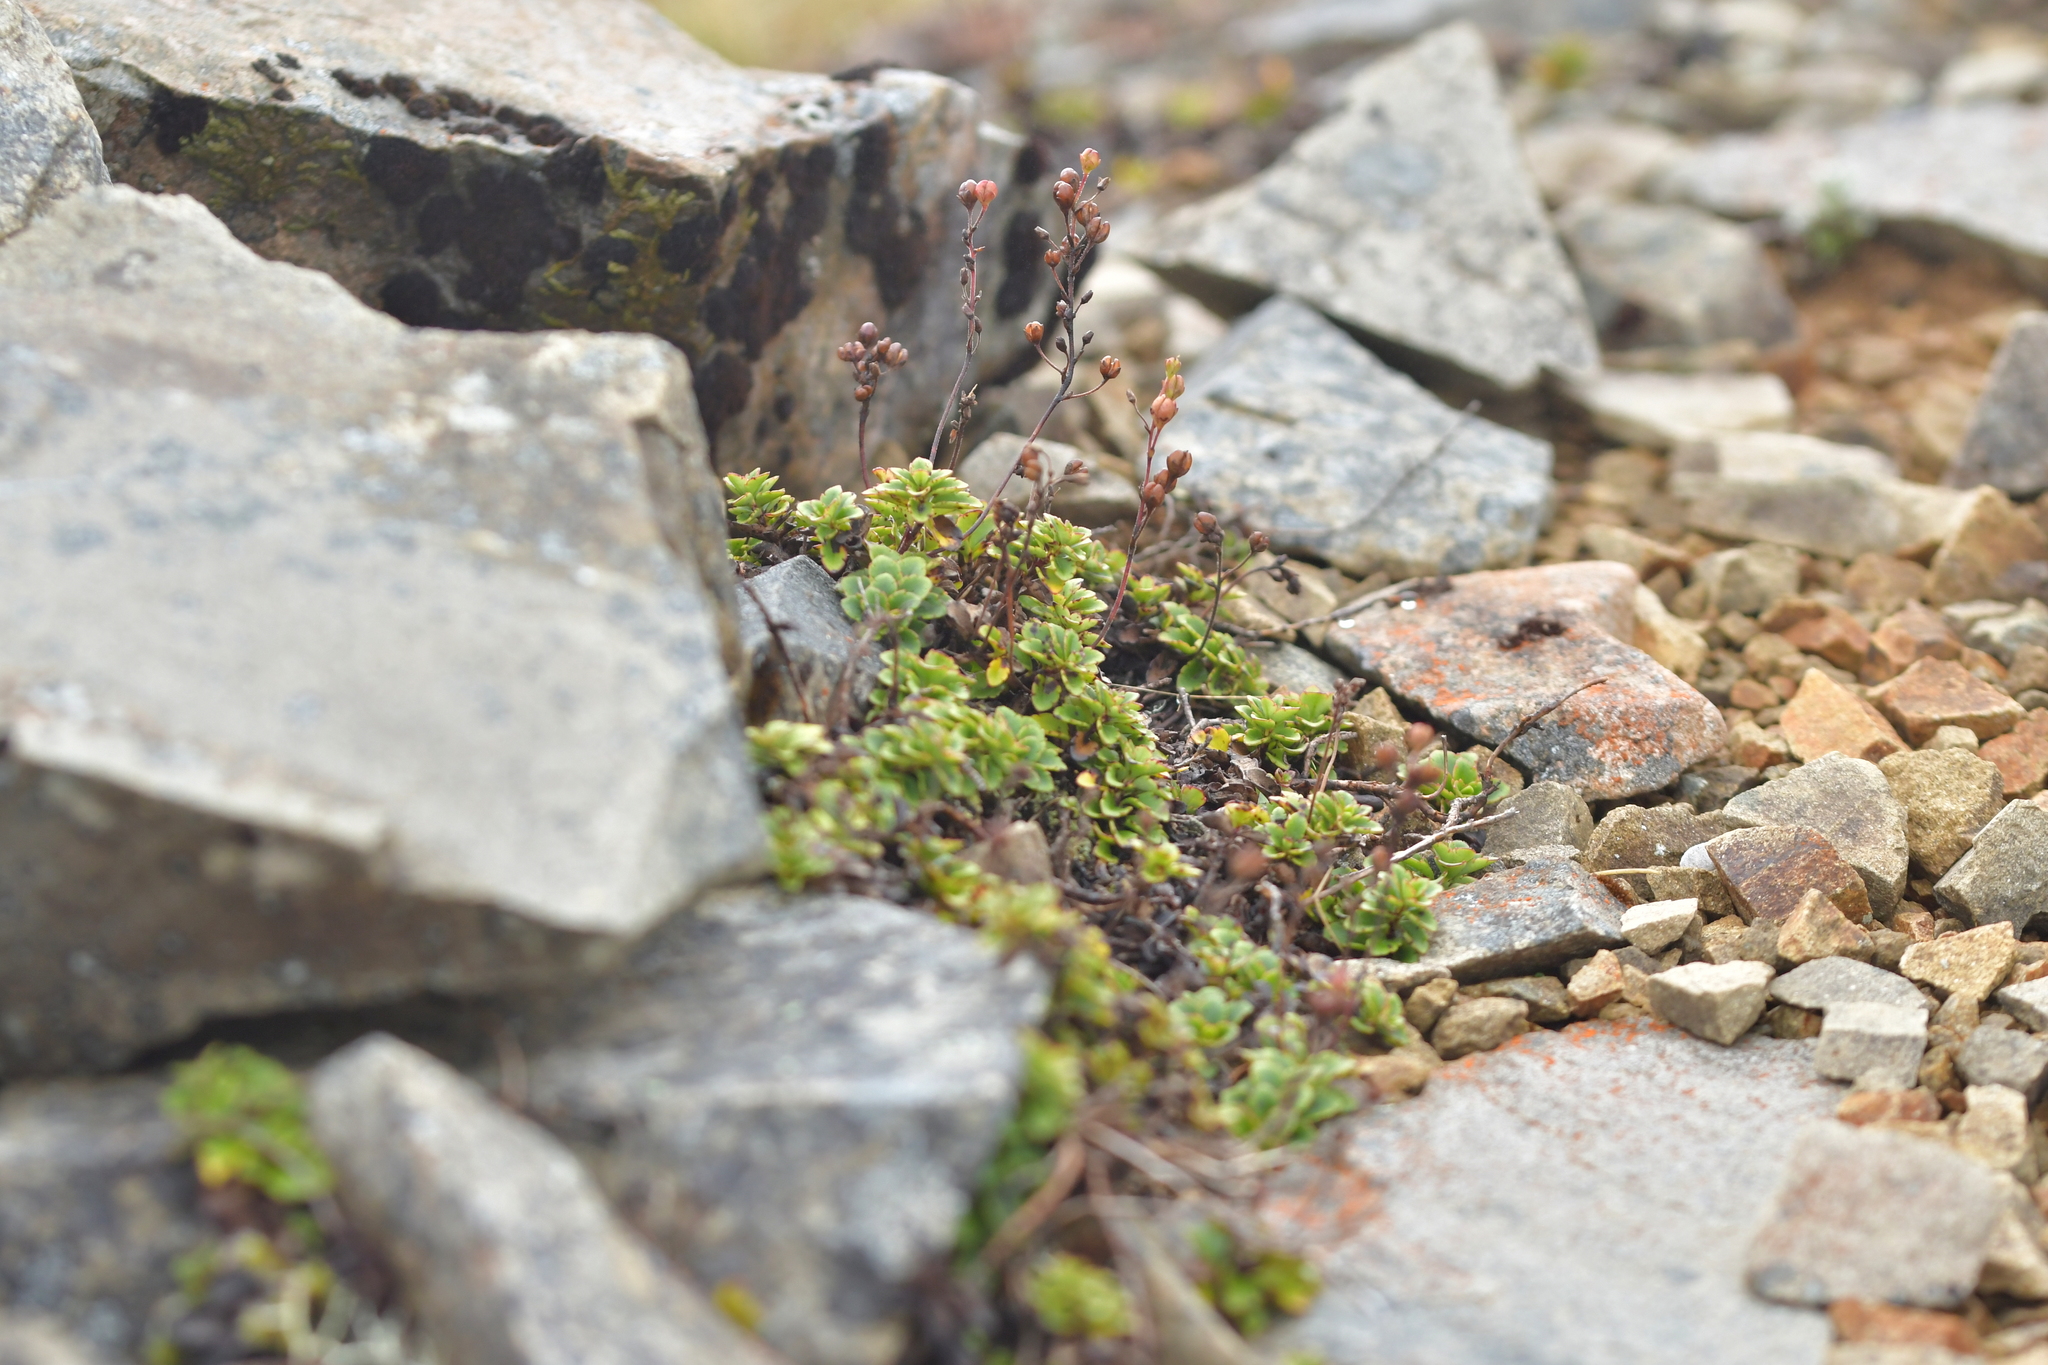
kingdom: Plantae
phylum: Tracheophyta
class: Magnoliopsida
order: Lamiales
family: Plantaginaceae
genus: Veronica
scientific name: Veronica hookeriana
